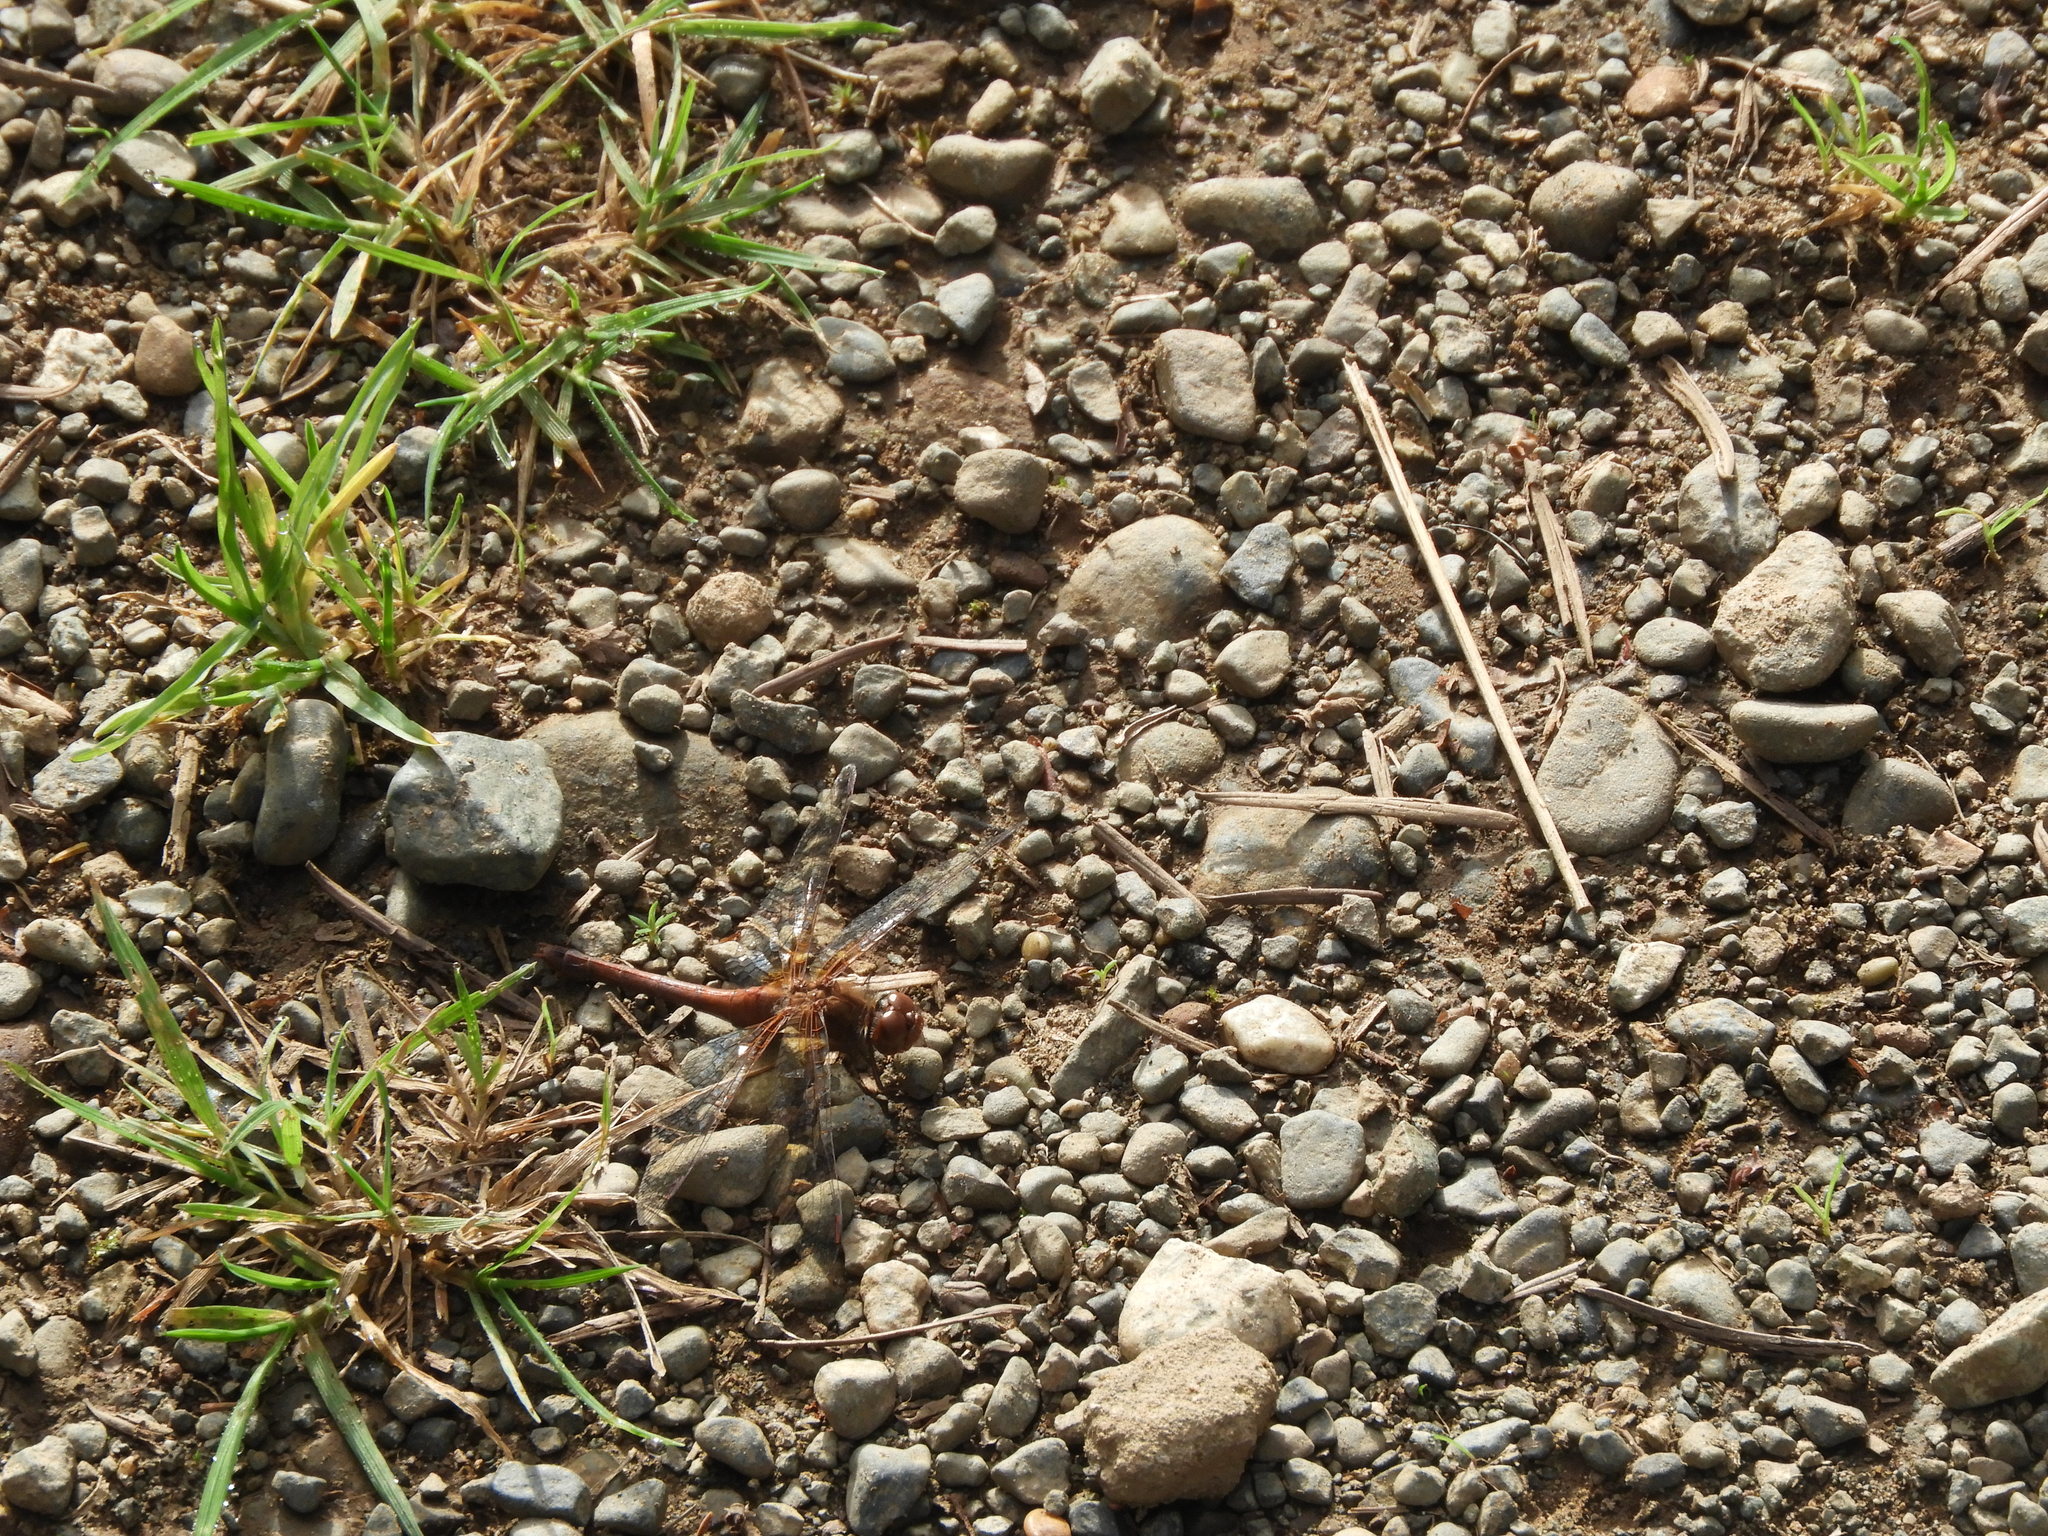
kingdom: Animalia
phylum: Arthropoda
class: Insecta
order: Odonata
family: Libellulidae
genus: Sympetrum
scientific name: Sympetrum vicinum
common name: Autumn meadowhawk
